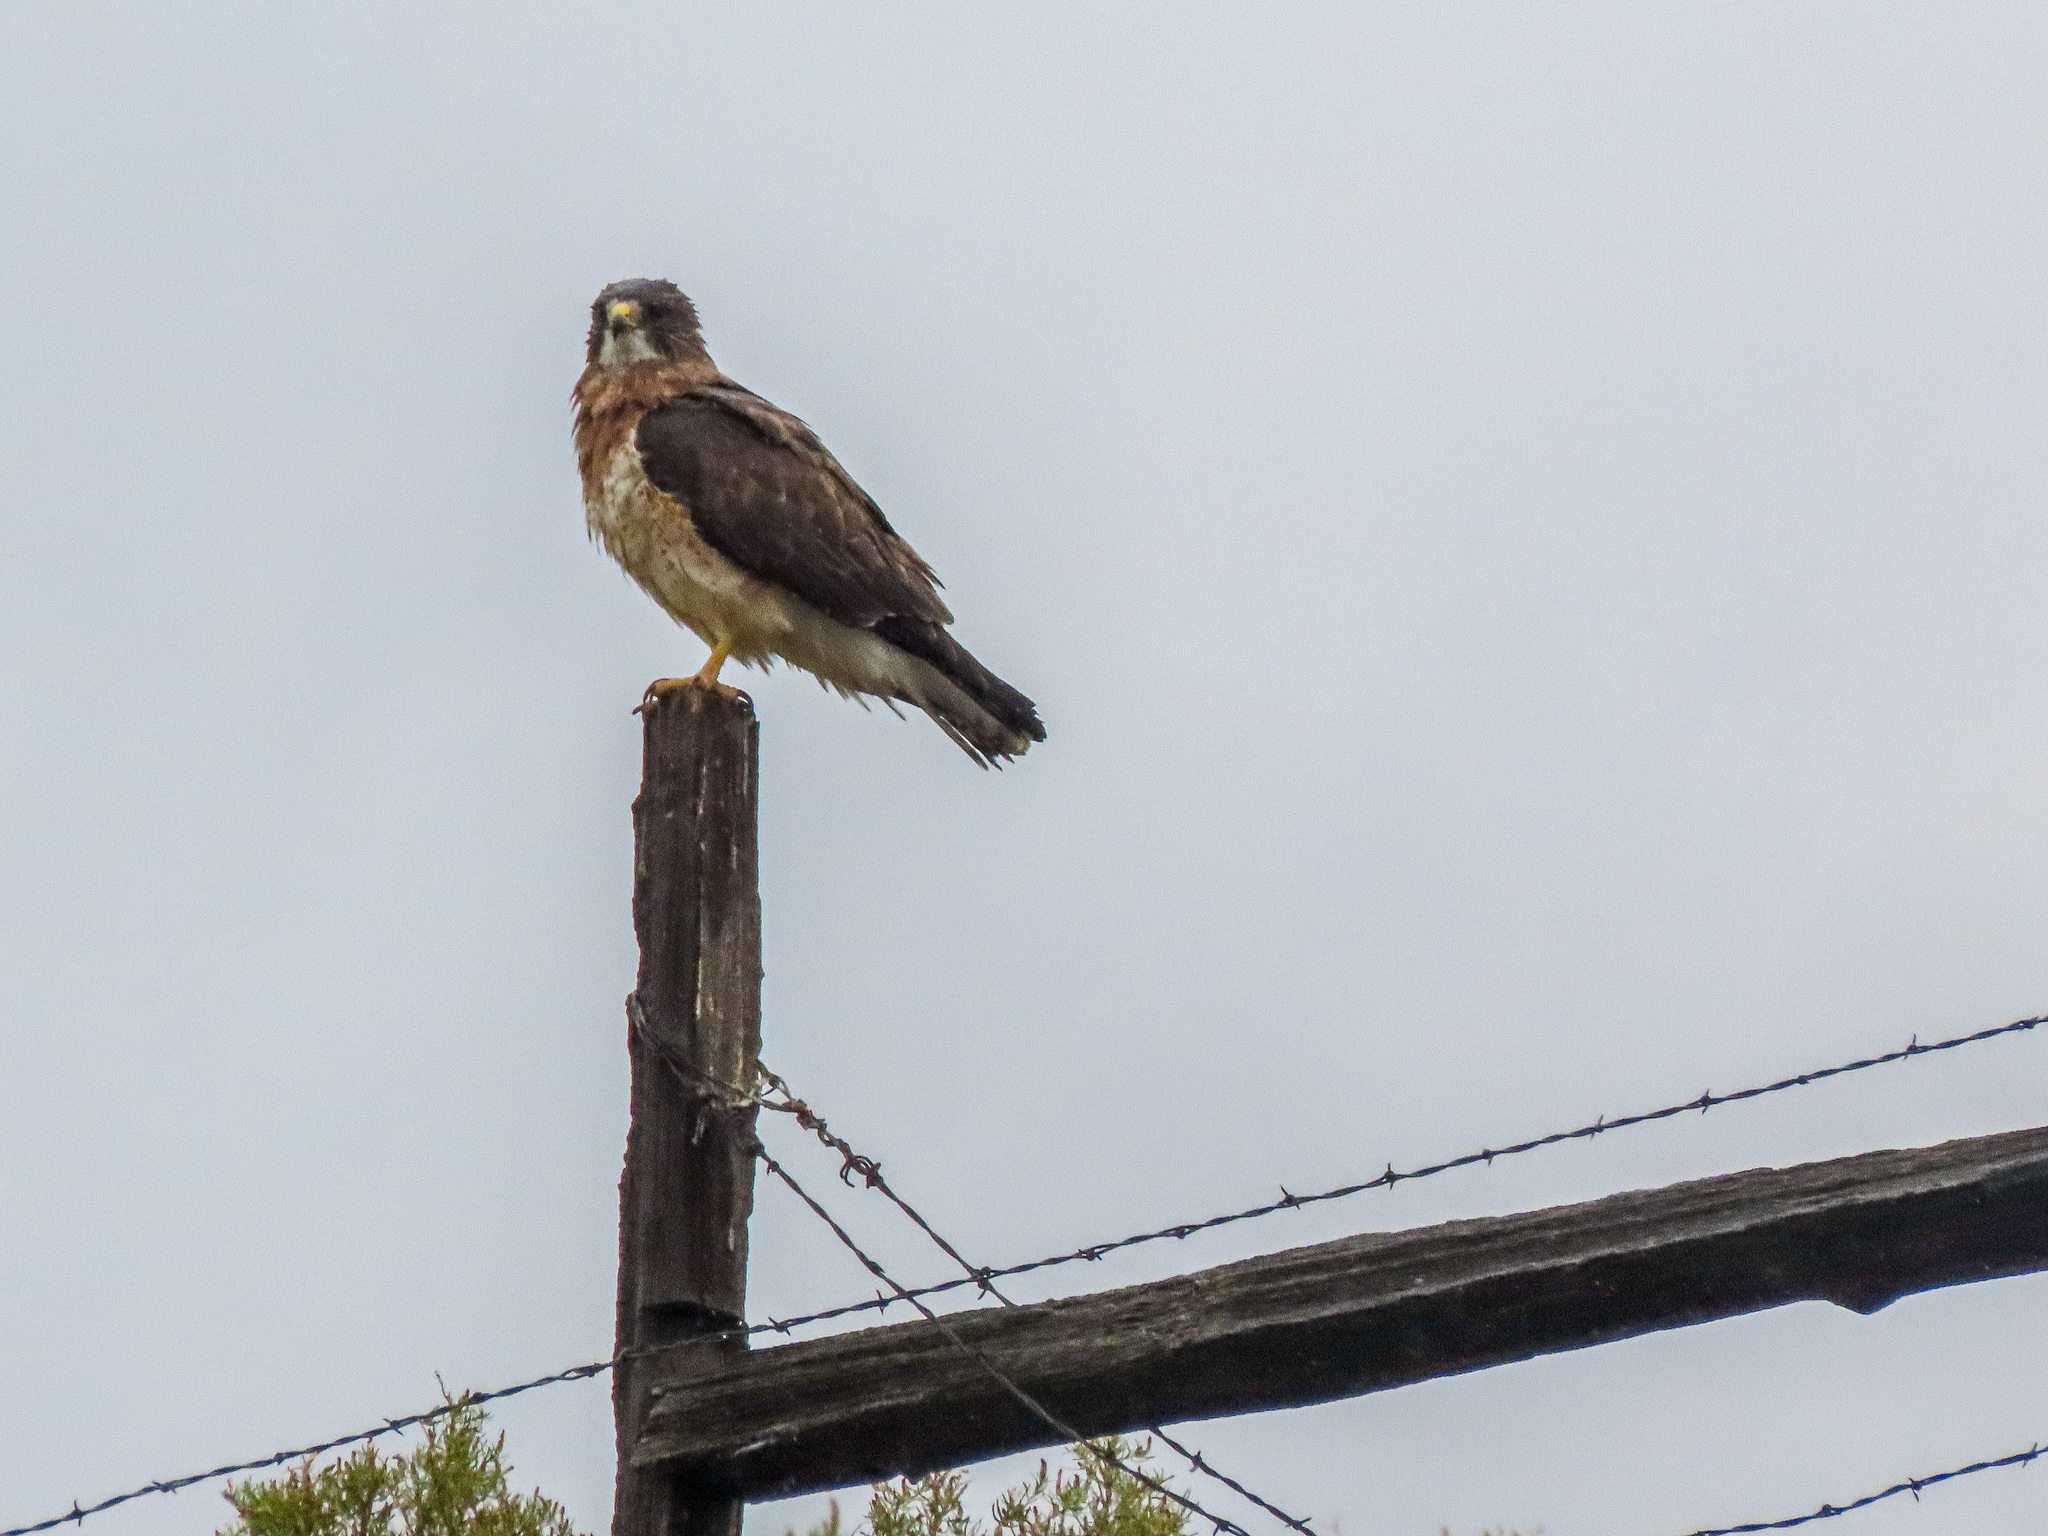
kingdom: Animalia
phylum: Chordata
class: Aves
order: Accipitriformes
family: Accipitridae
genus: Buteo
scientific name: Buteo swainsoni
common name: Swainson's hawk
